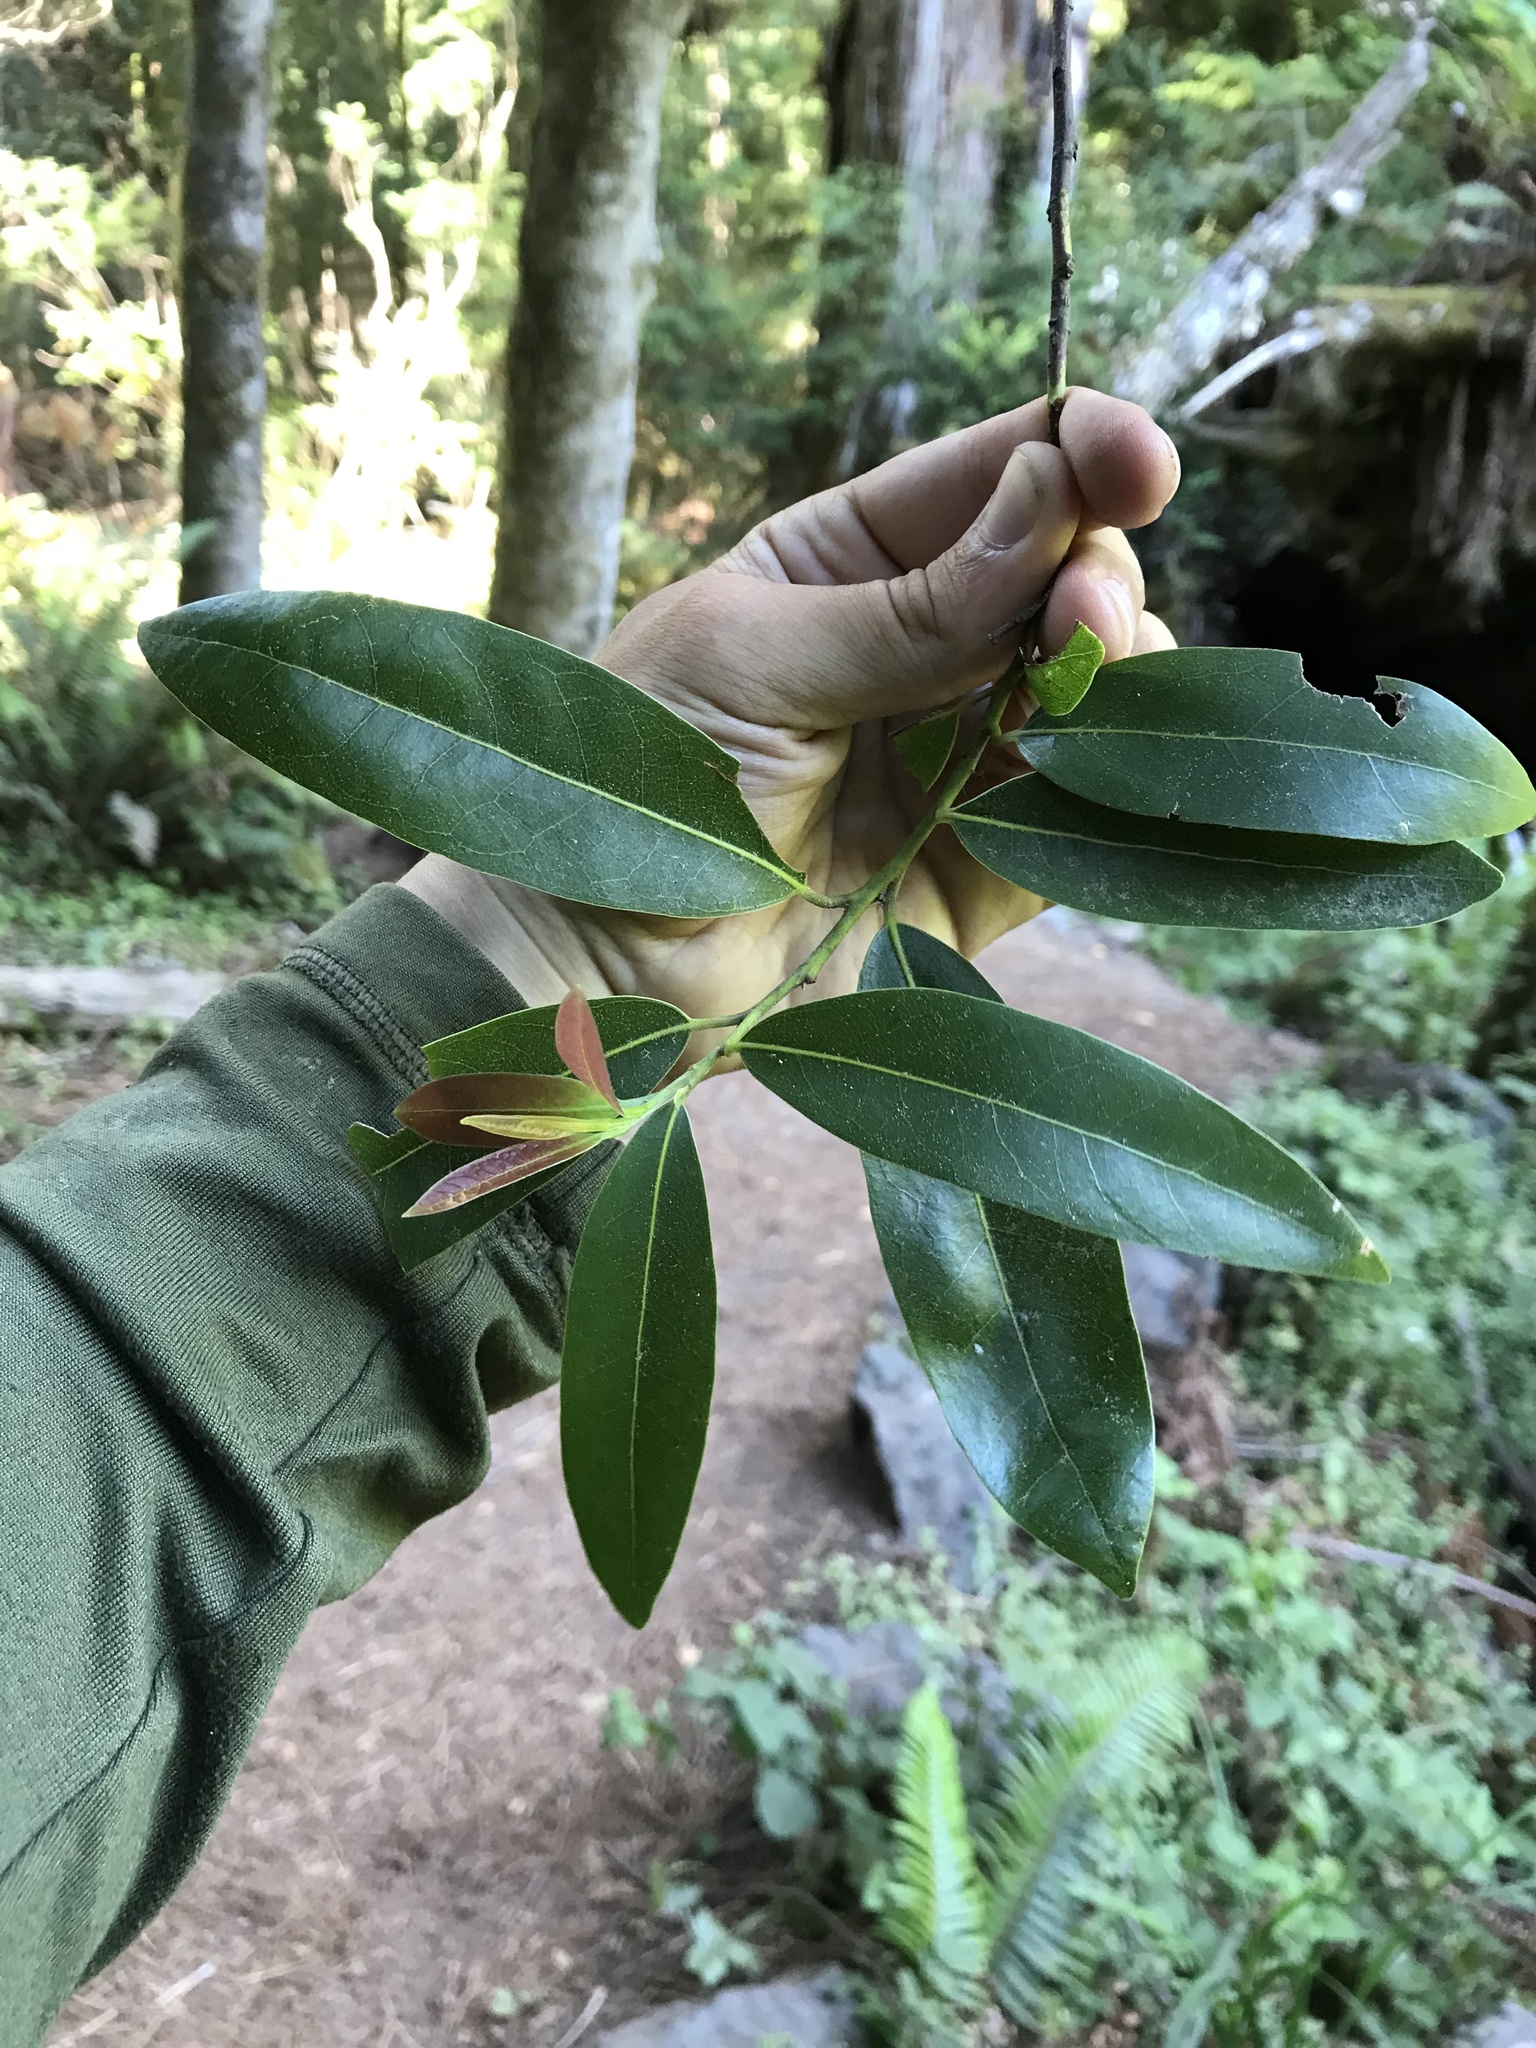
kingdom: Plantae
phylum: Tracheophyta
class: Magnoliopsida
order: Laurales
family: Lauraceae
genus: Umbellularia
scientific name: Umbellularia californica
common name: California bay
